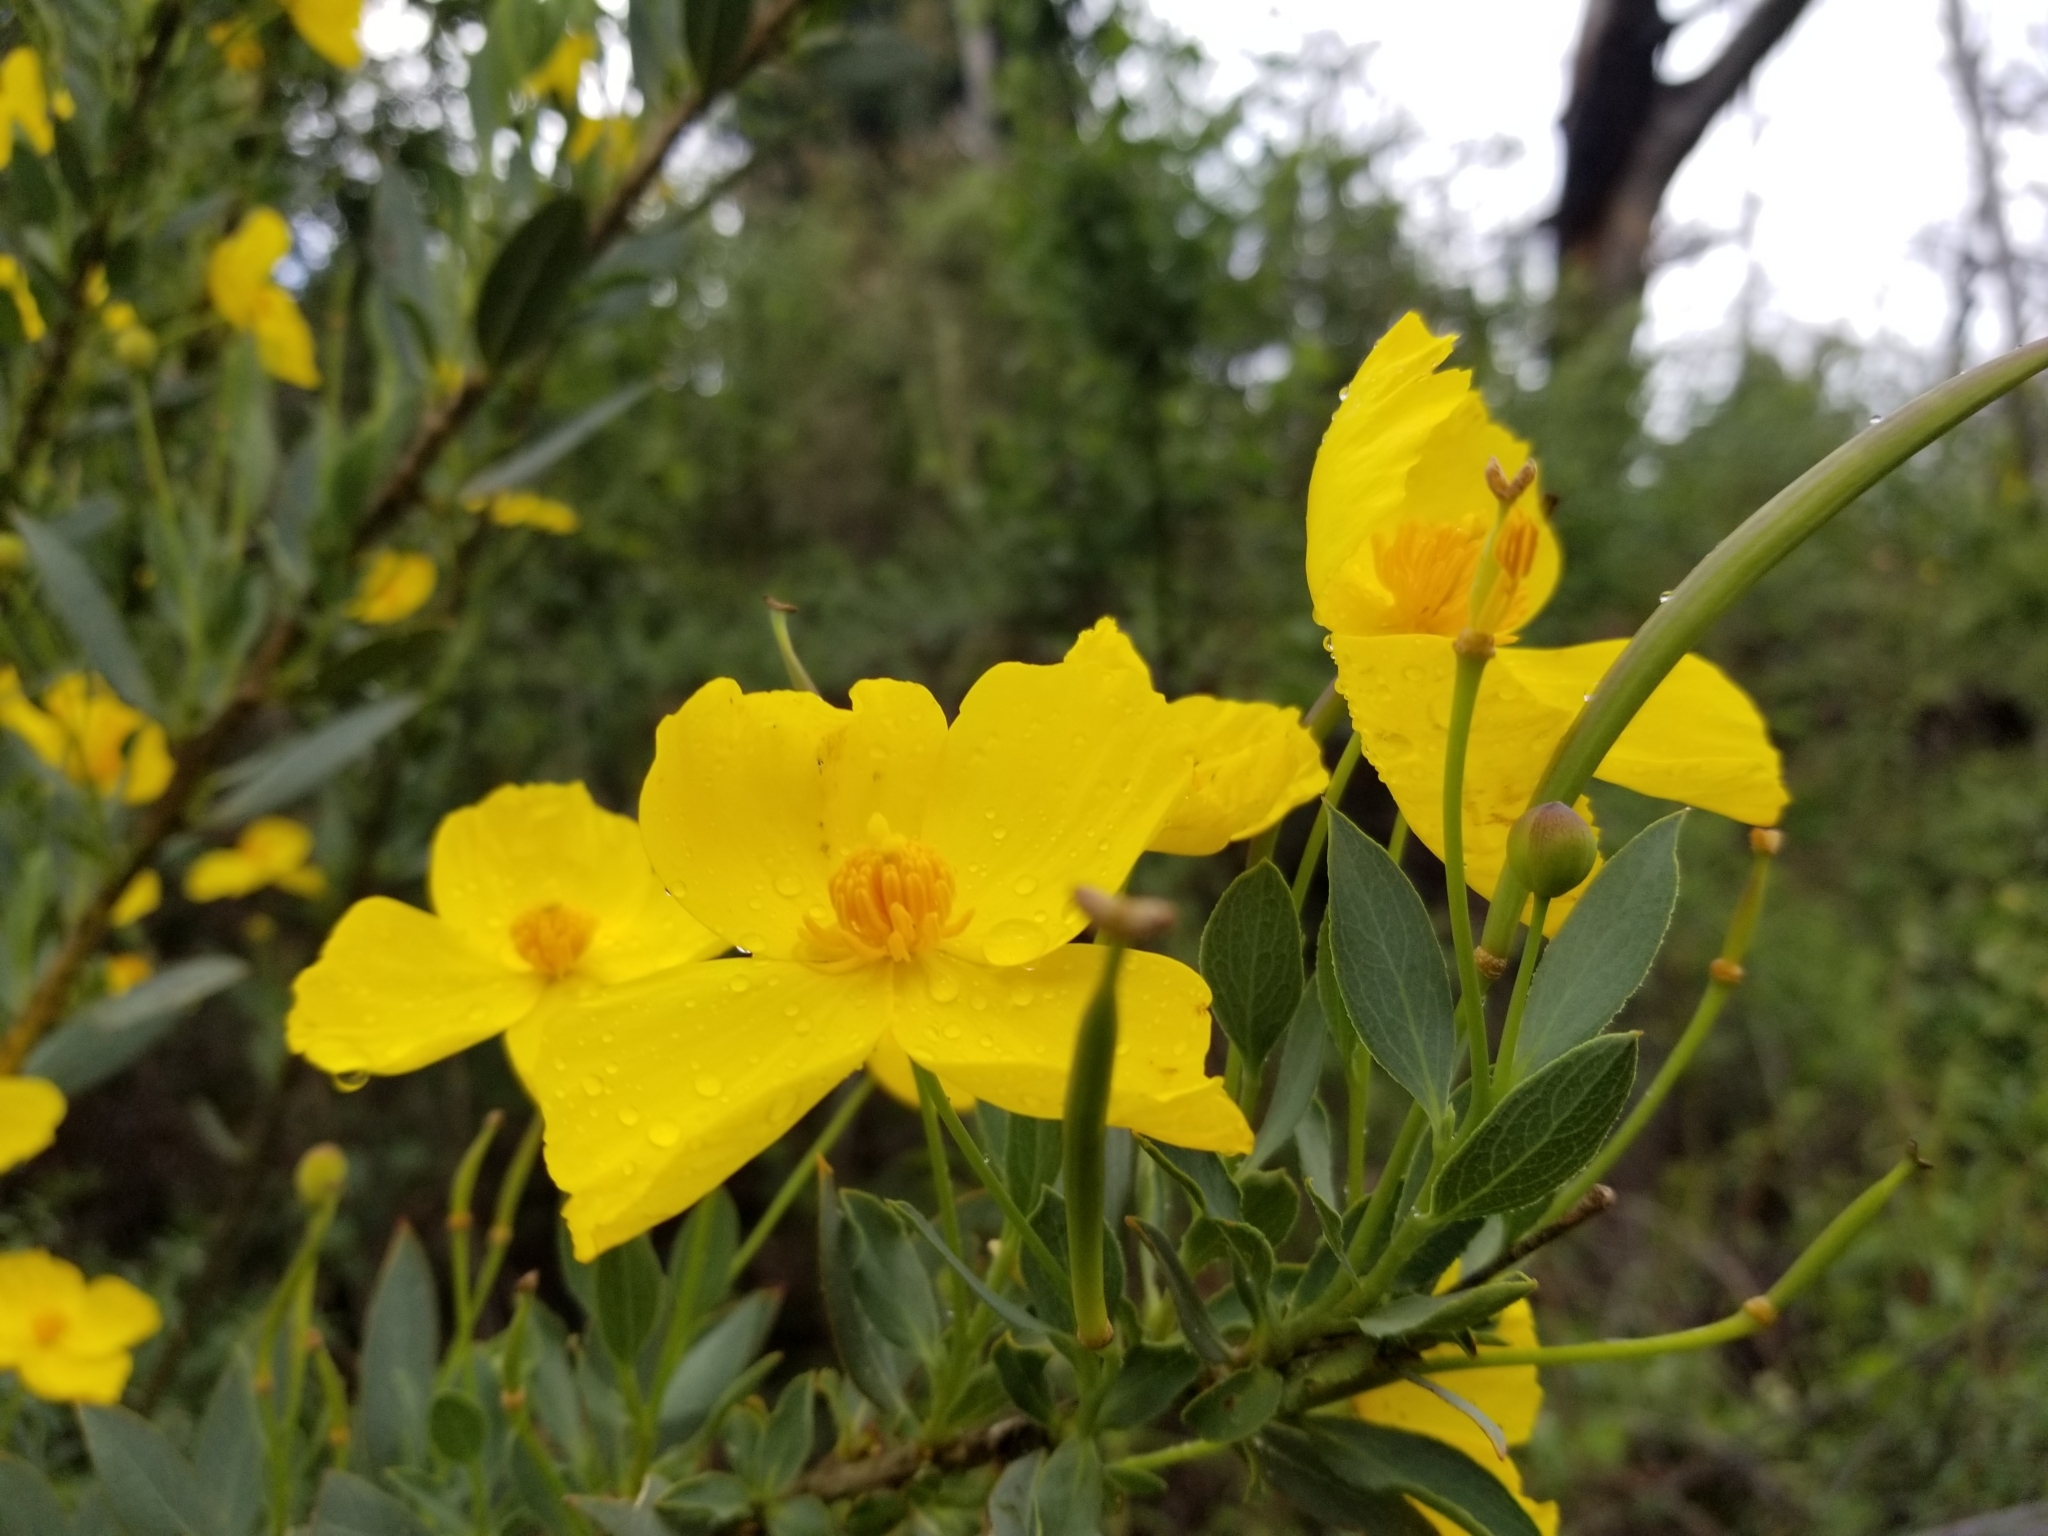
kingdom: Plantae
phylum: Tracheophyta
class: Magnoliopsida
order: Ranunculales
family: Papaveraceae
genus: Dendromecon
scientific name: Dendromecon rigida
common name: Tree poppy
